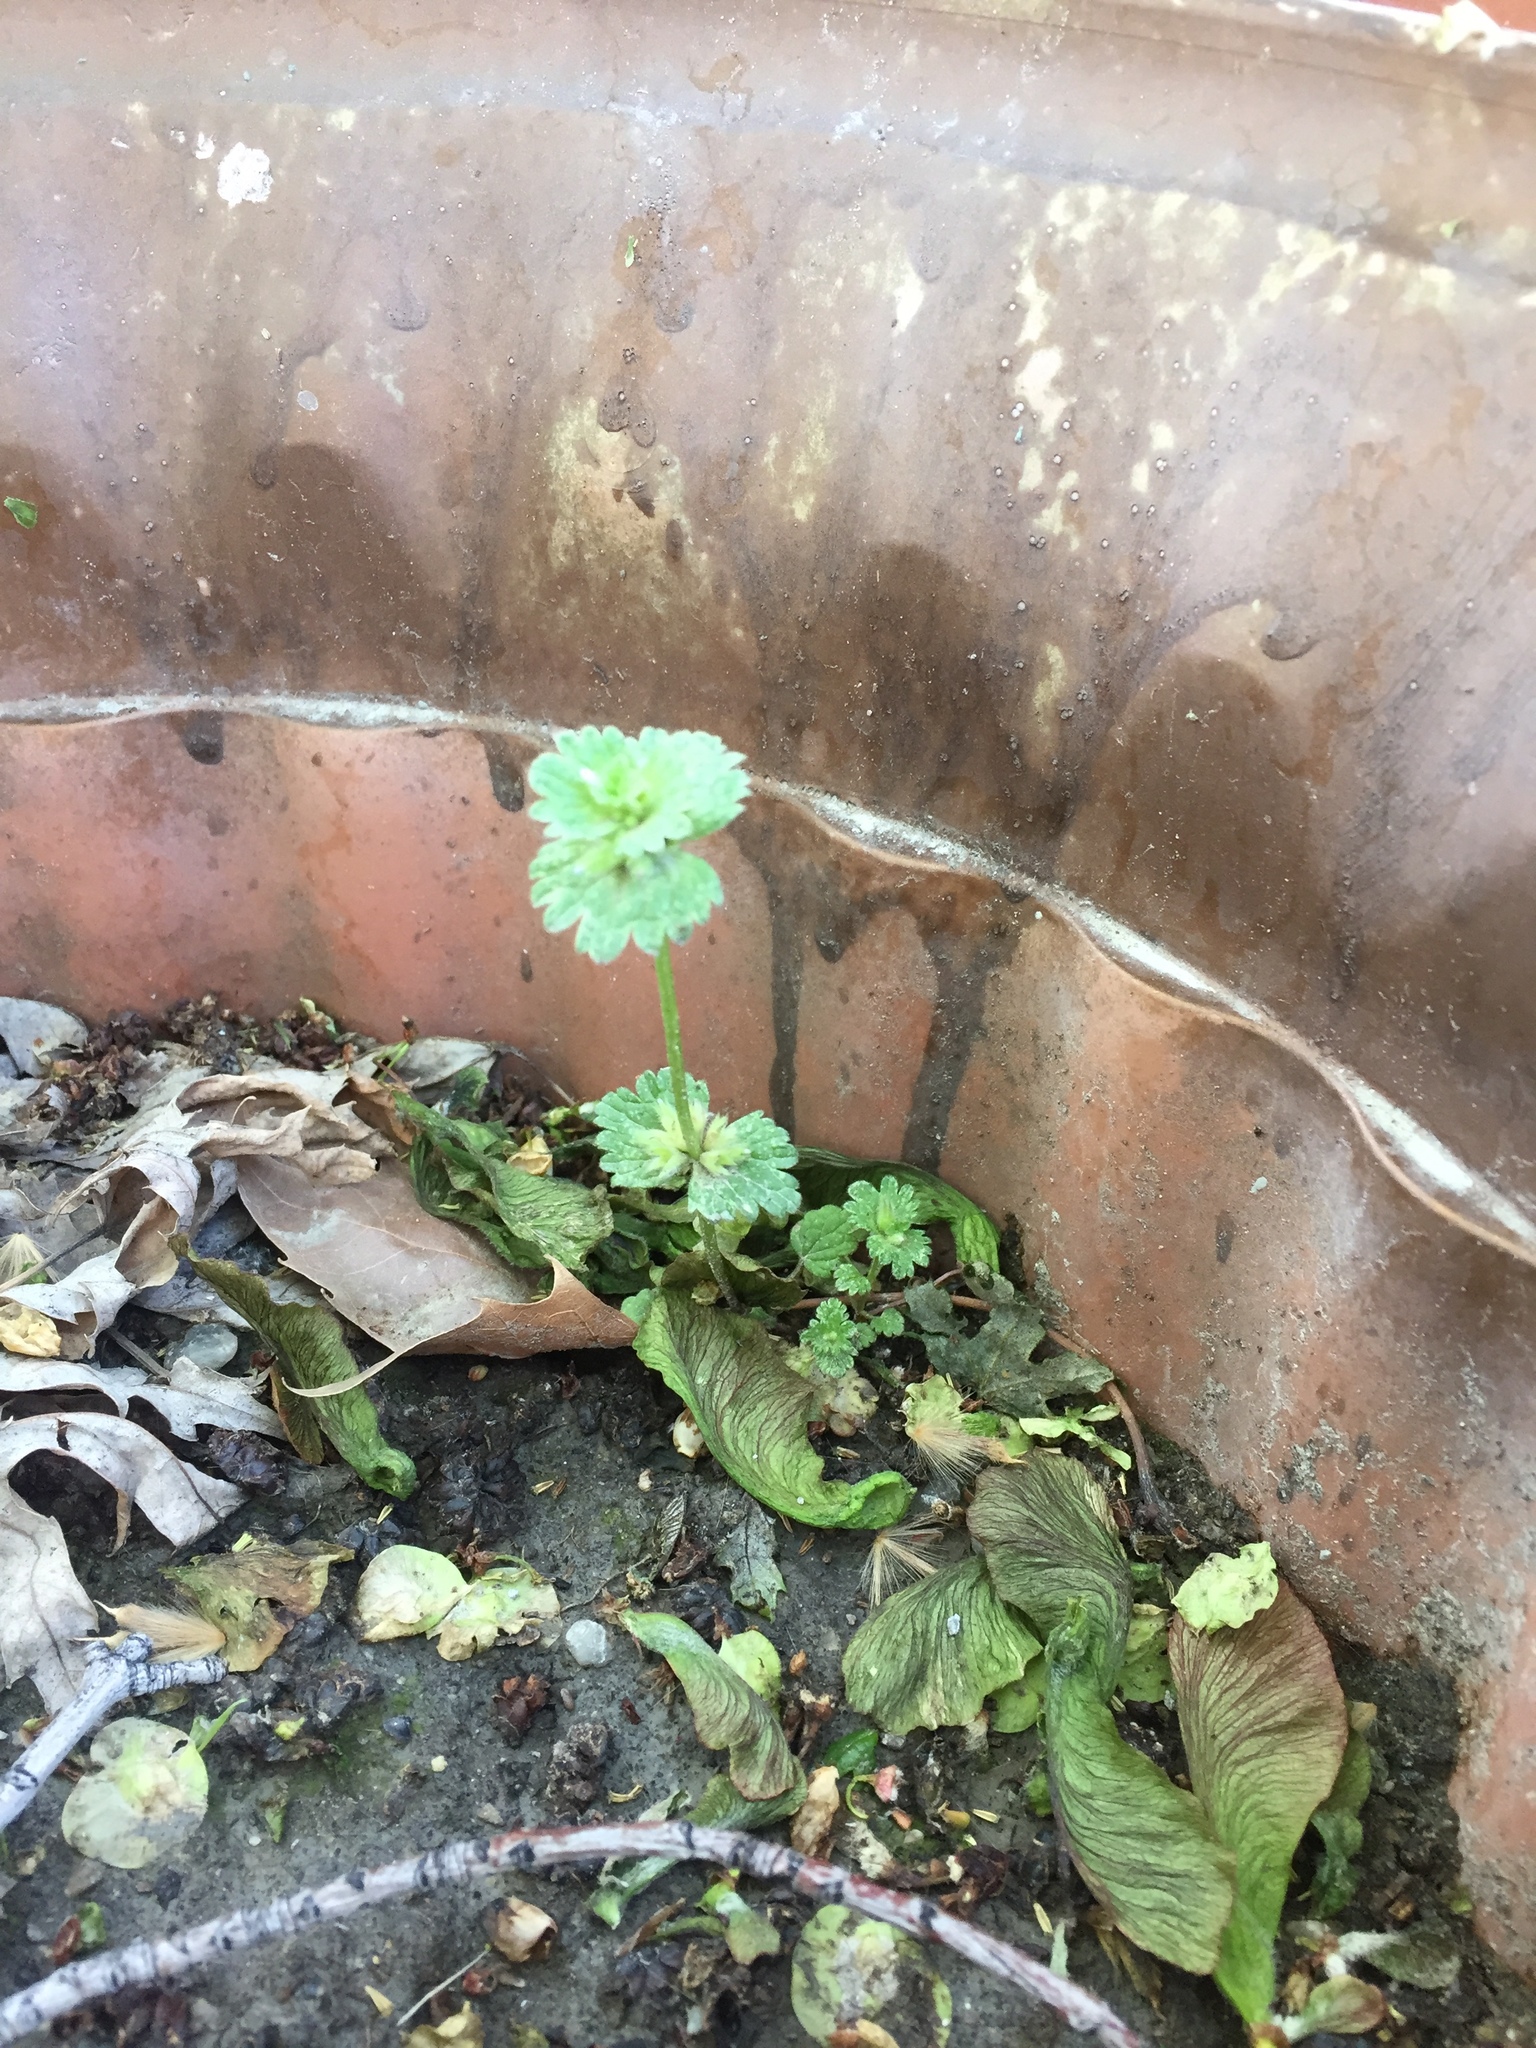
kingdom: Plantae
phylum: Tracheophyta
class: Magnoliopsida
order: Lamiales
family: Lamiaceae
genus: Lamium
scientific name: Lamium amplexicaule
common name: Henbit dead-nettle
